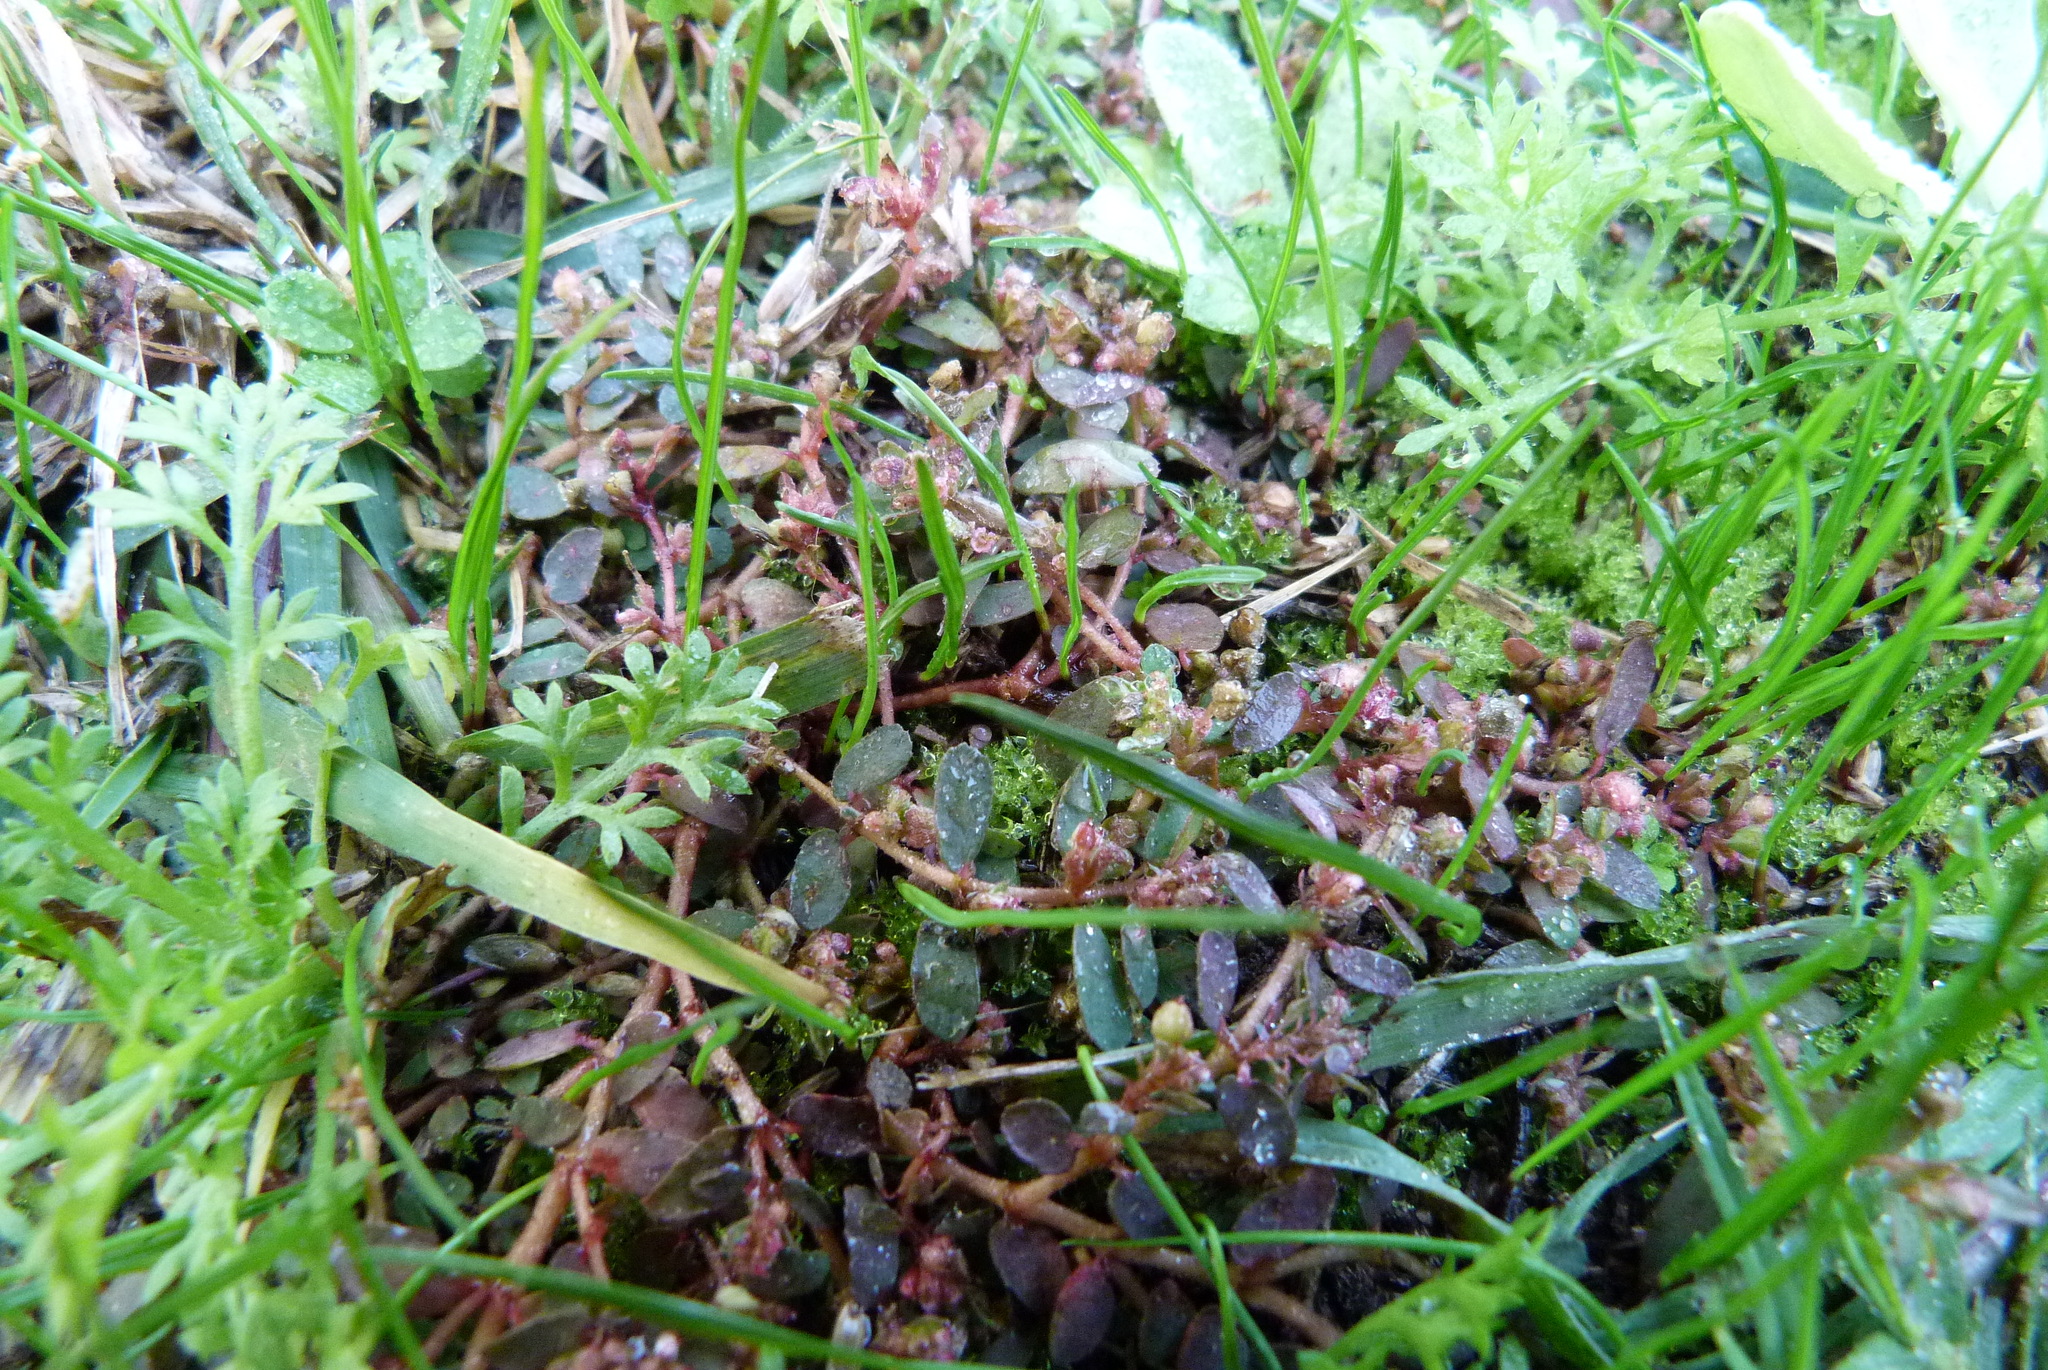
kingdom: Plantae
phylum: Tracheophyta
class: Magnoliopsida
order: Malpighiales
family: Euphorbiaceae
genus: Euphorbia
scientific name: Euphorbia maculata
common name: Spotted spurge
